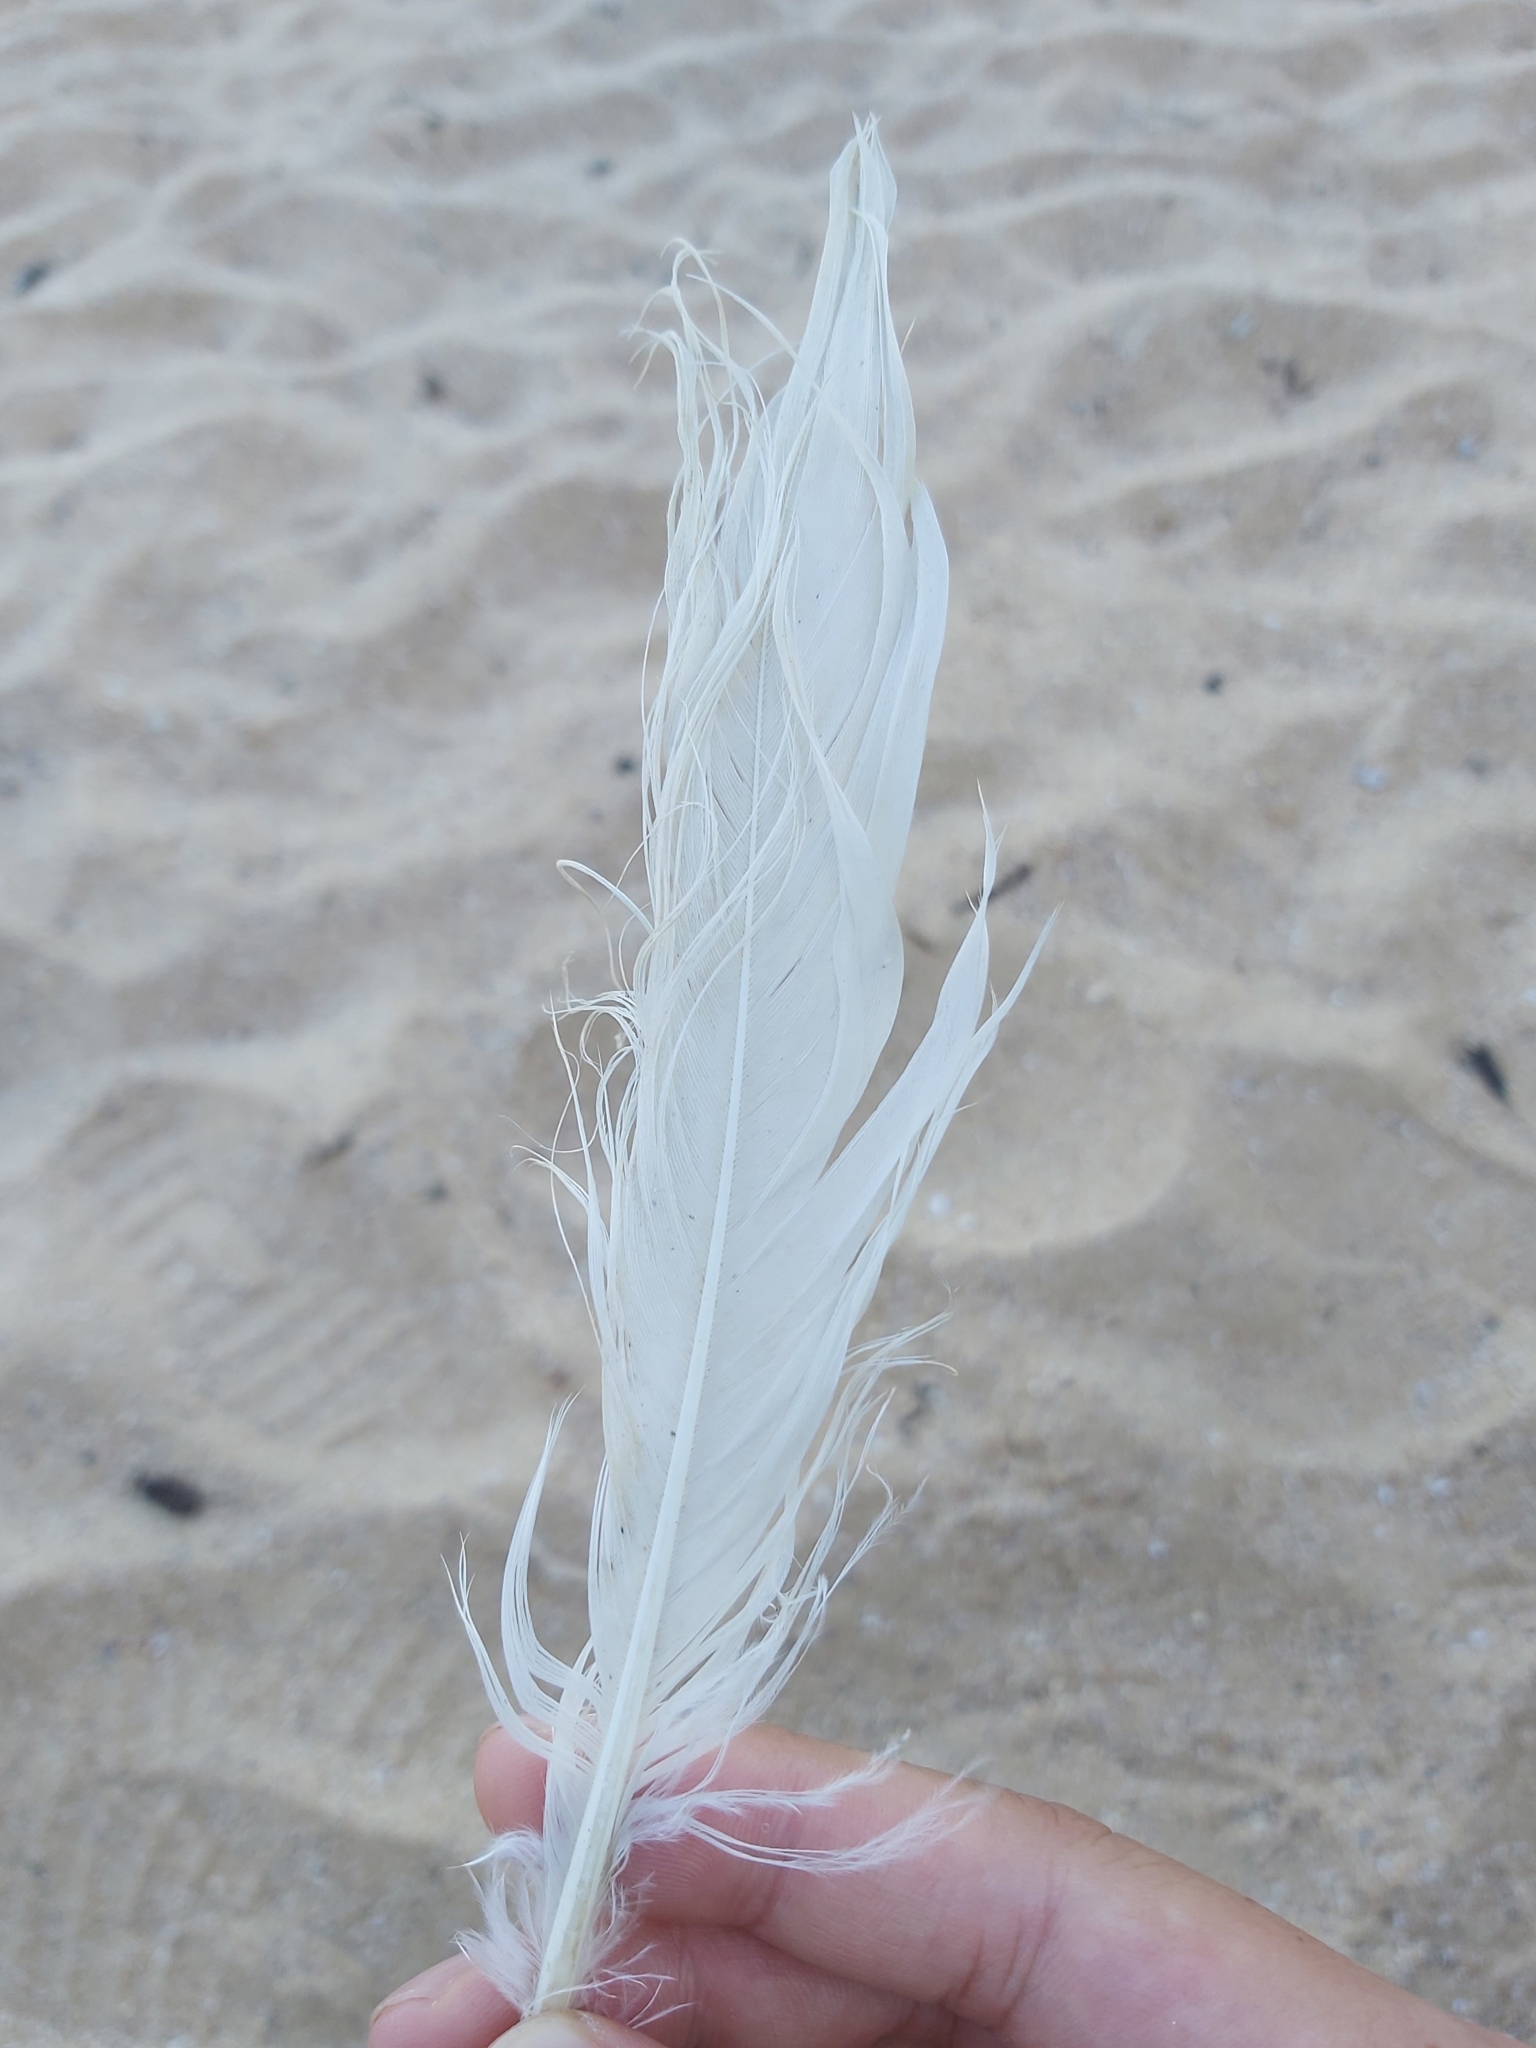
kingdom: Animalia
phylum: Chordata
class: Aves
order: Pelecaniformes
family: Pelecanidae
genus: Pelecanus
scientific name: Pelecanus conspicillatus
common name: Australian pelican
